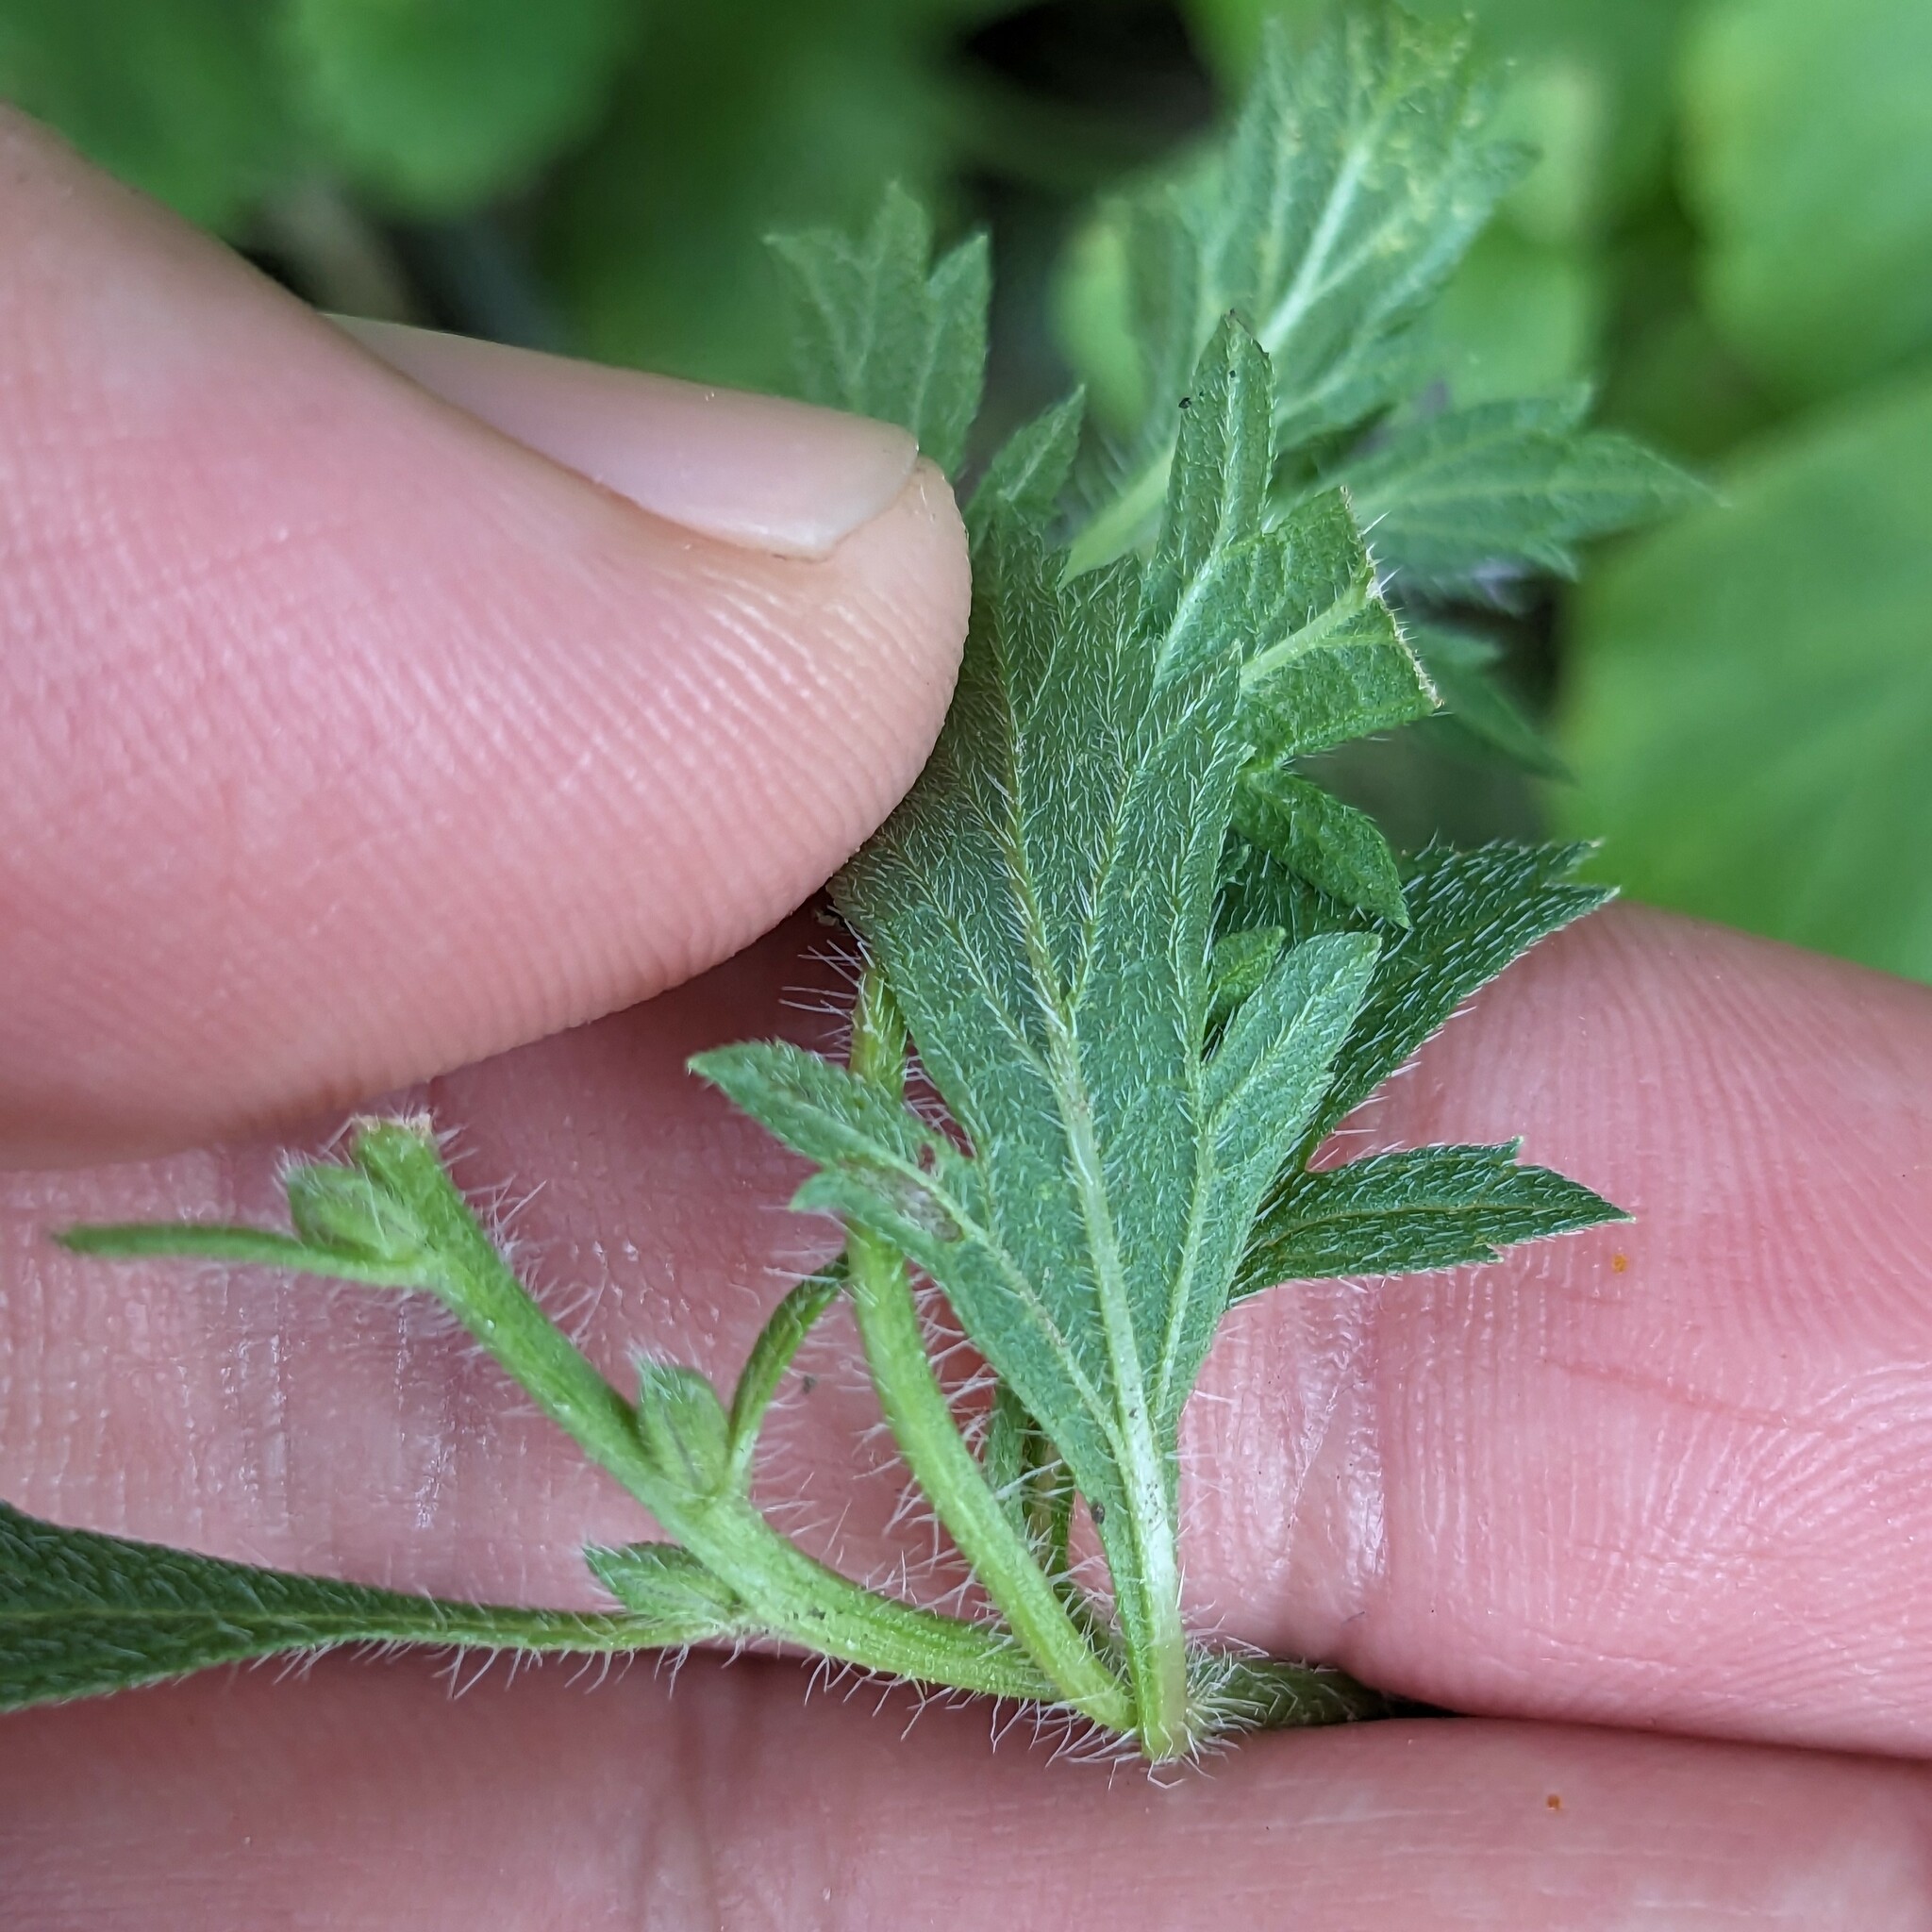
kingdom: Plantae
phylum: Tracheophyta
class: Magnoliopsida
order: Lamiales
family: Verbenaceae
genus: Verbena
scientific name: Verbena bracteata
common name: Bracted vervain
